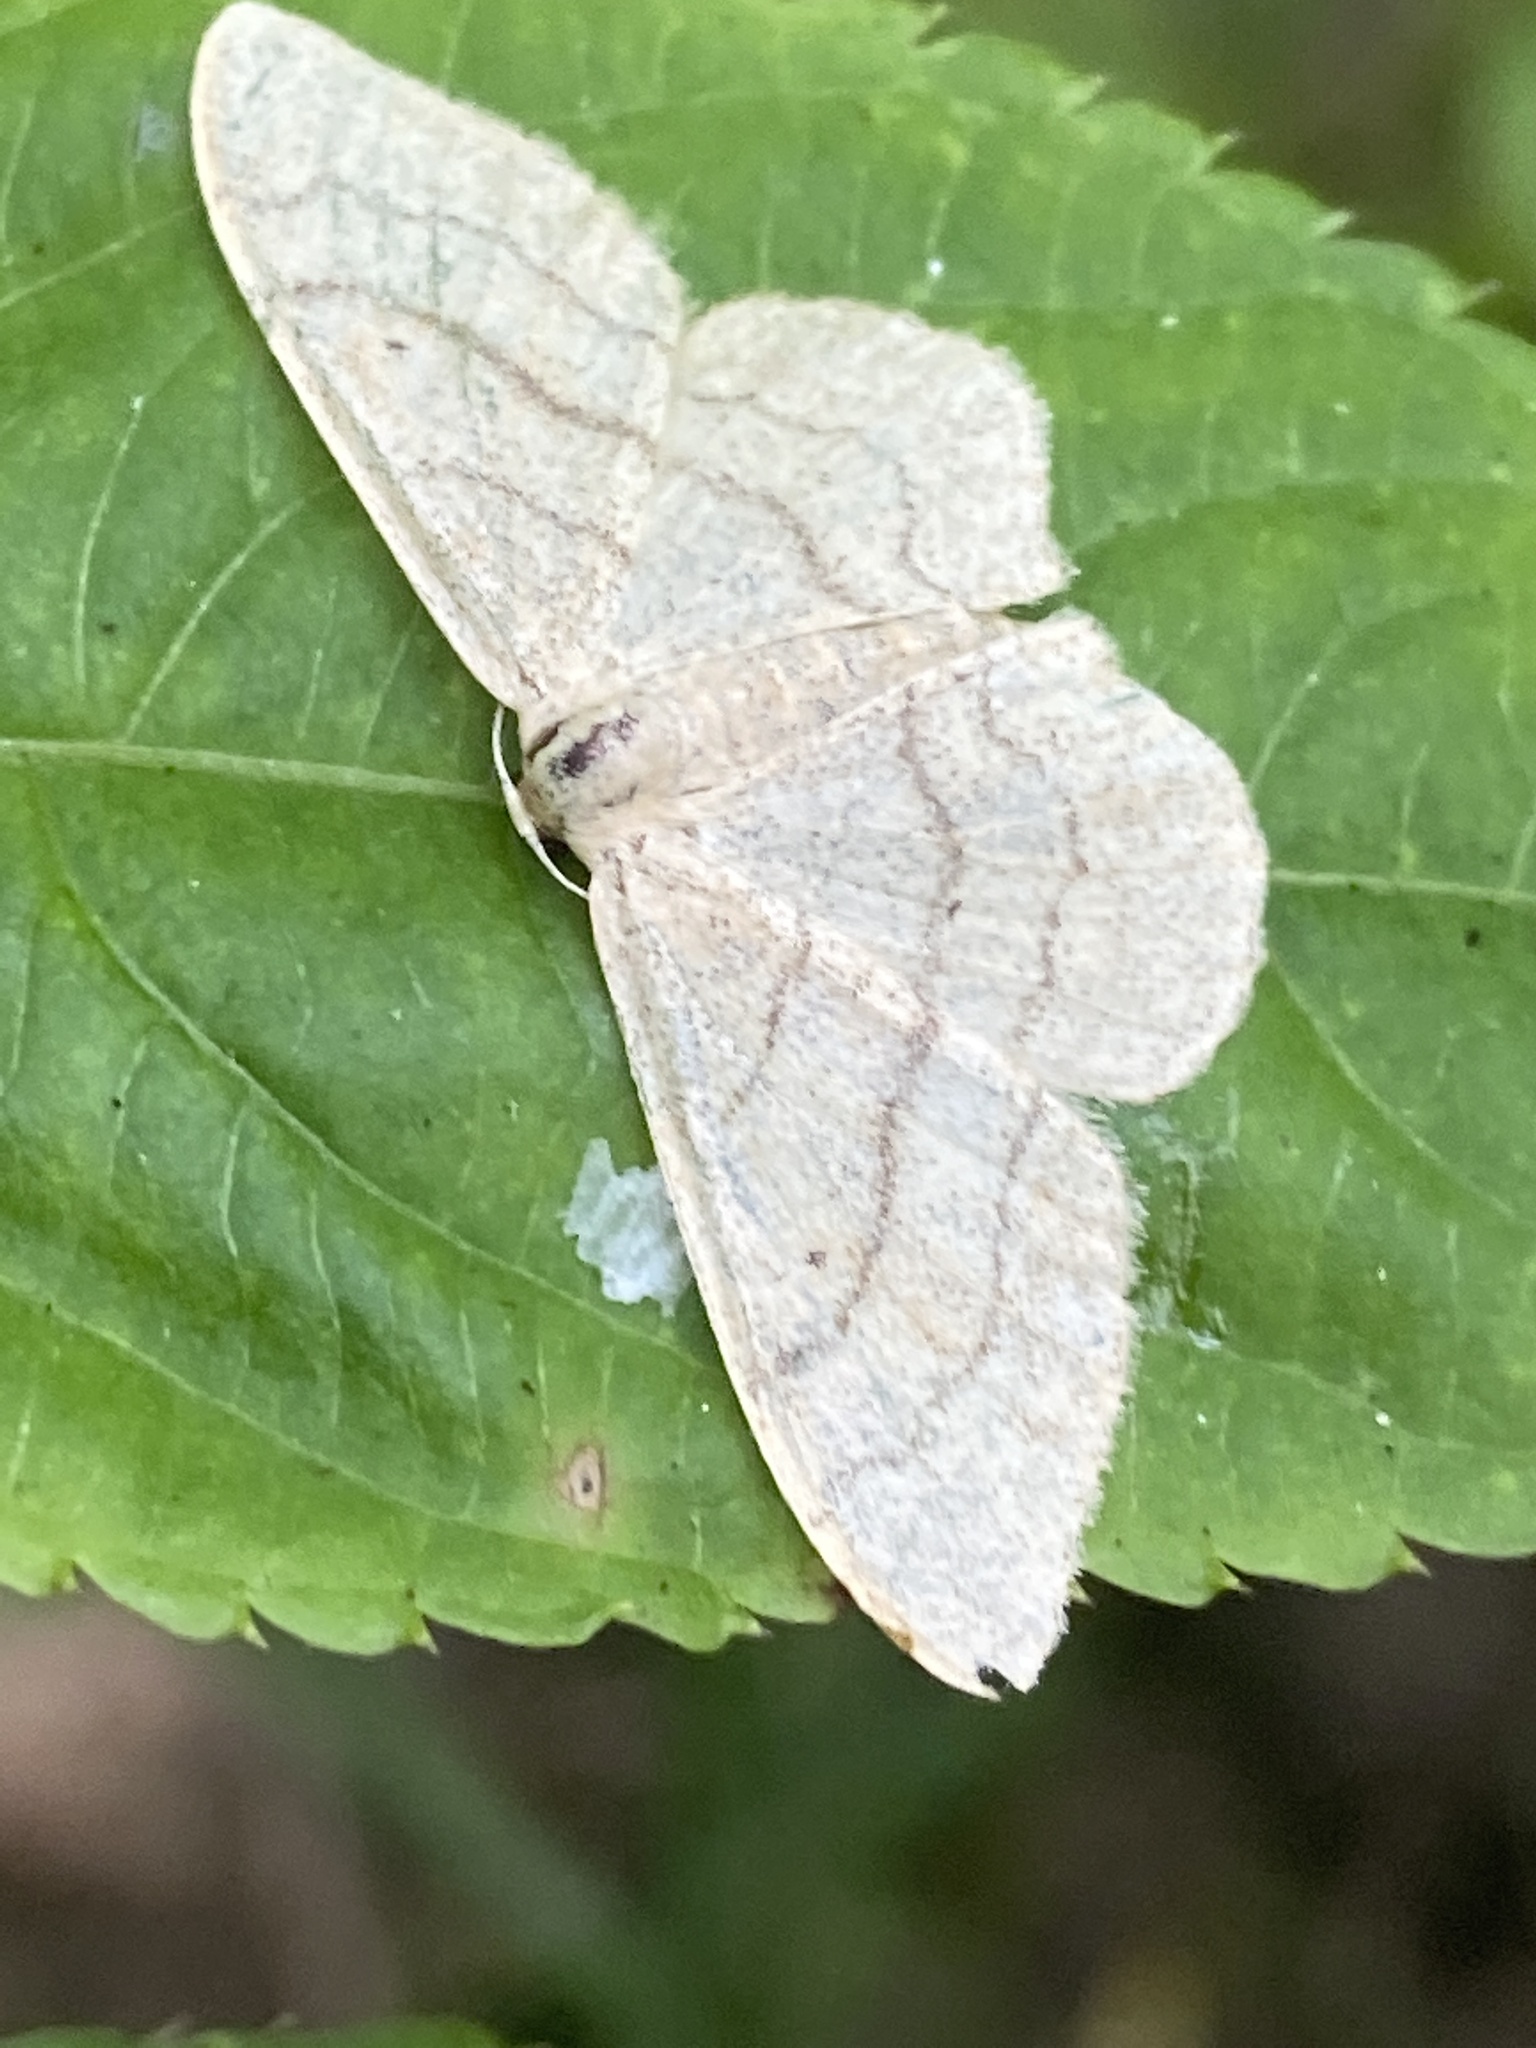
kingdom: Animalia
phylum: Arthropoda
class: Insecta
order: Lepidoptera
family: Geometridae
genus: Idaea
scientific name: Idaea aversata
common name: Riband wave
